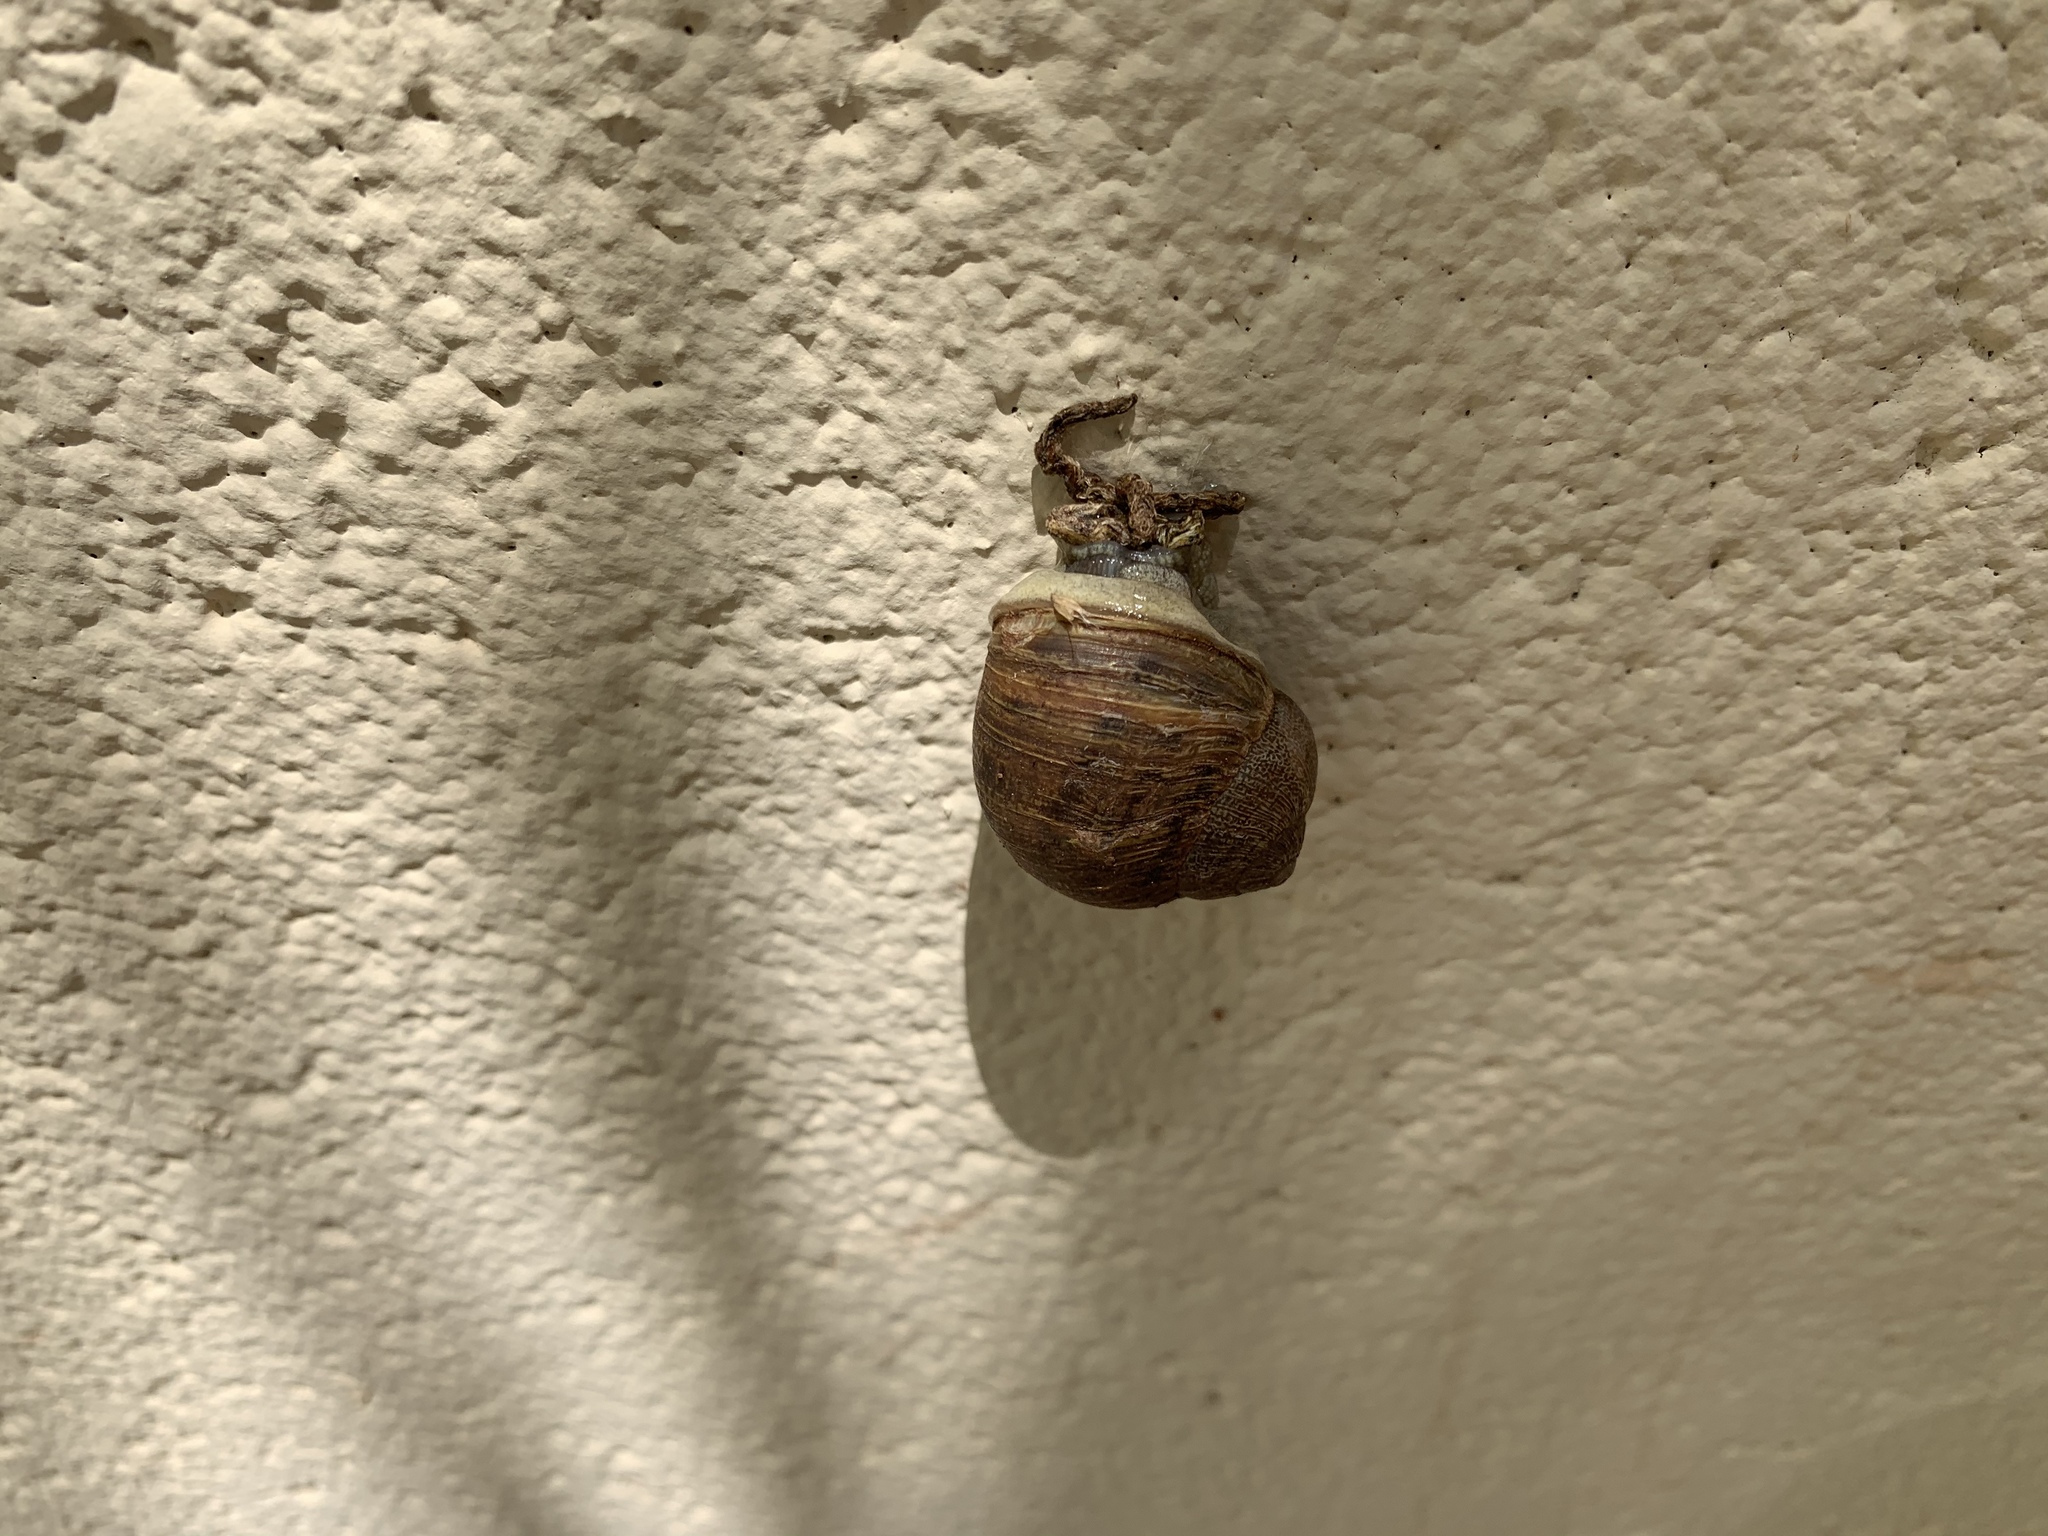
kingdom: Animalia
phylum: Mollusca
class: Gastropoda
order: Stylommatophora
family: Helicidae
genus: Cornu
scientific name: Cornu aspersum
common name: Brown garden snail
